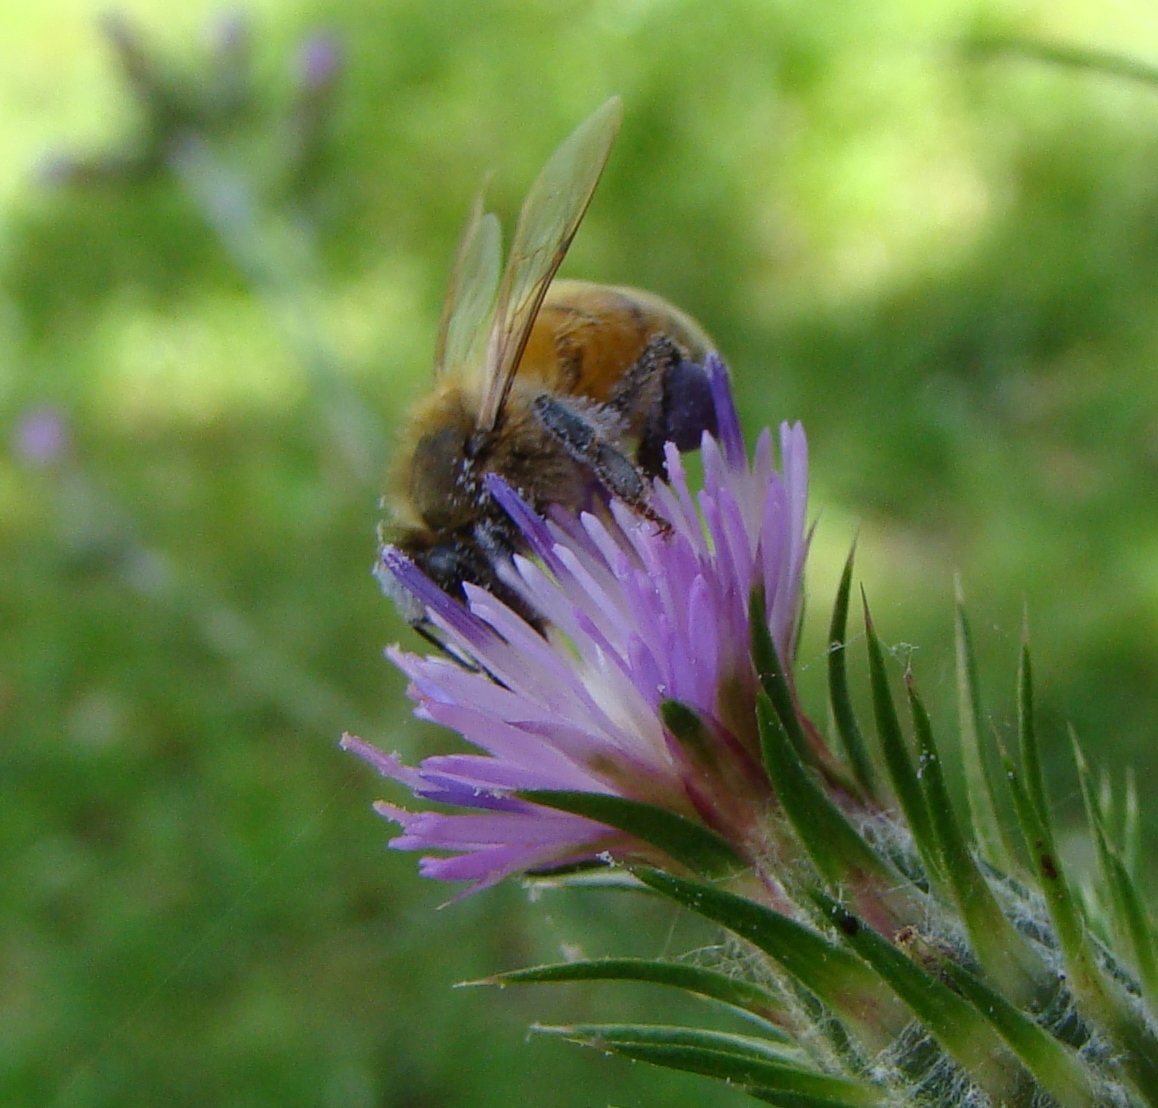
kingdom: Animalia
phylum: Arthropoda
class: Insecta
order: Hymenoptera
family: Apidae
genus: Apis
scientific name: Apis mellifera
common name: Honey bee
